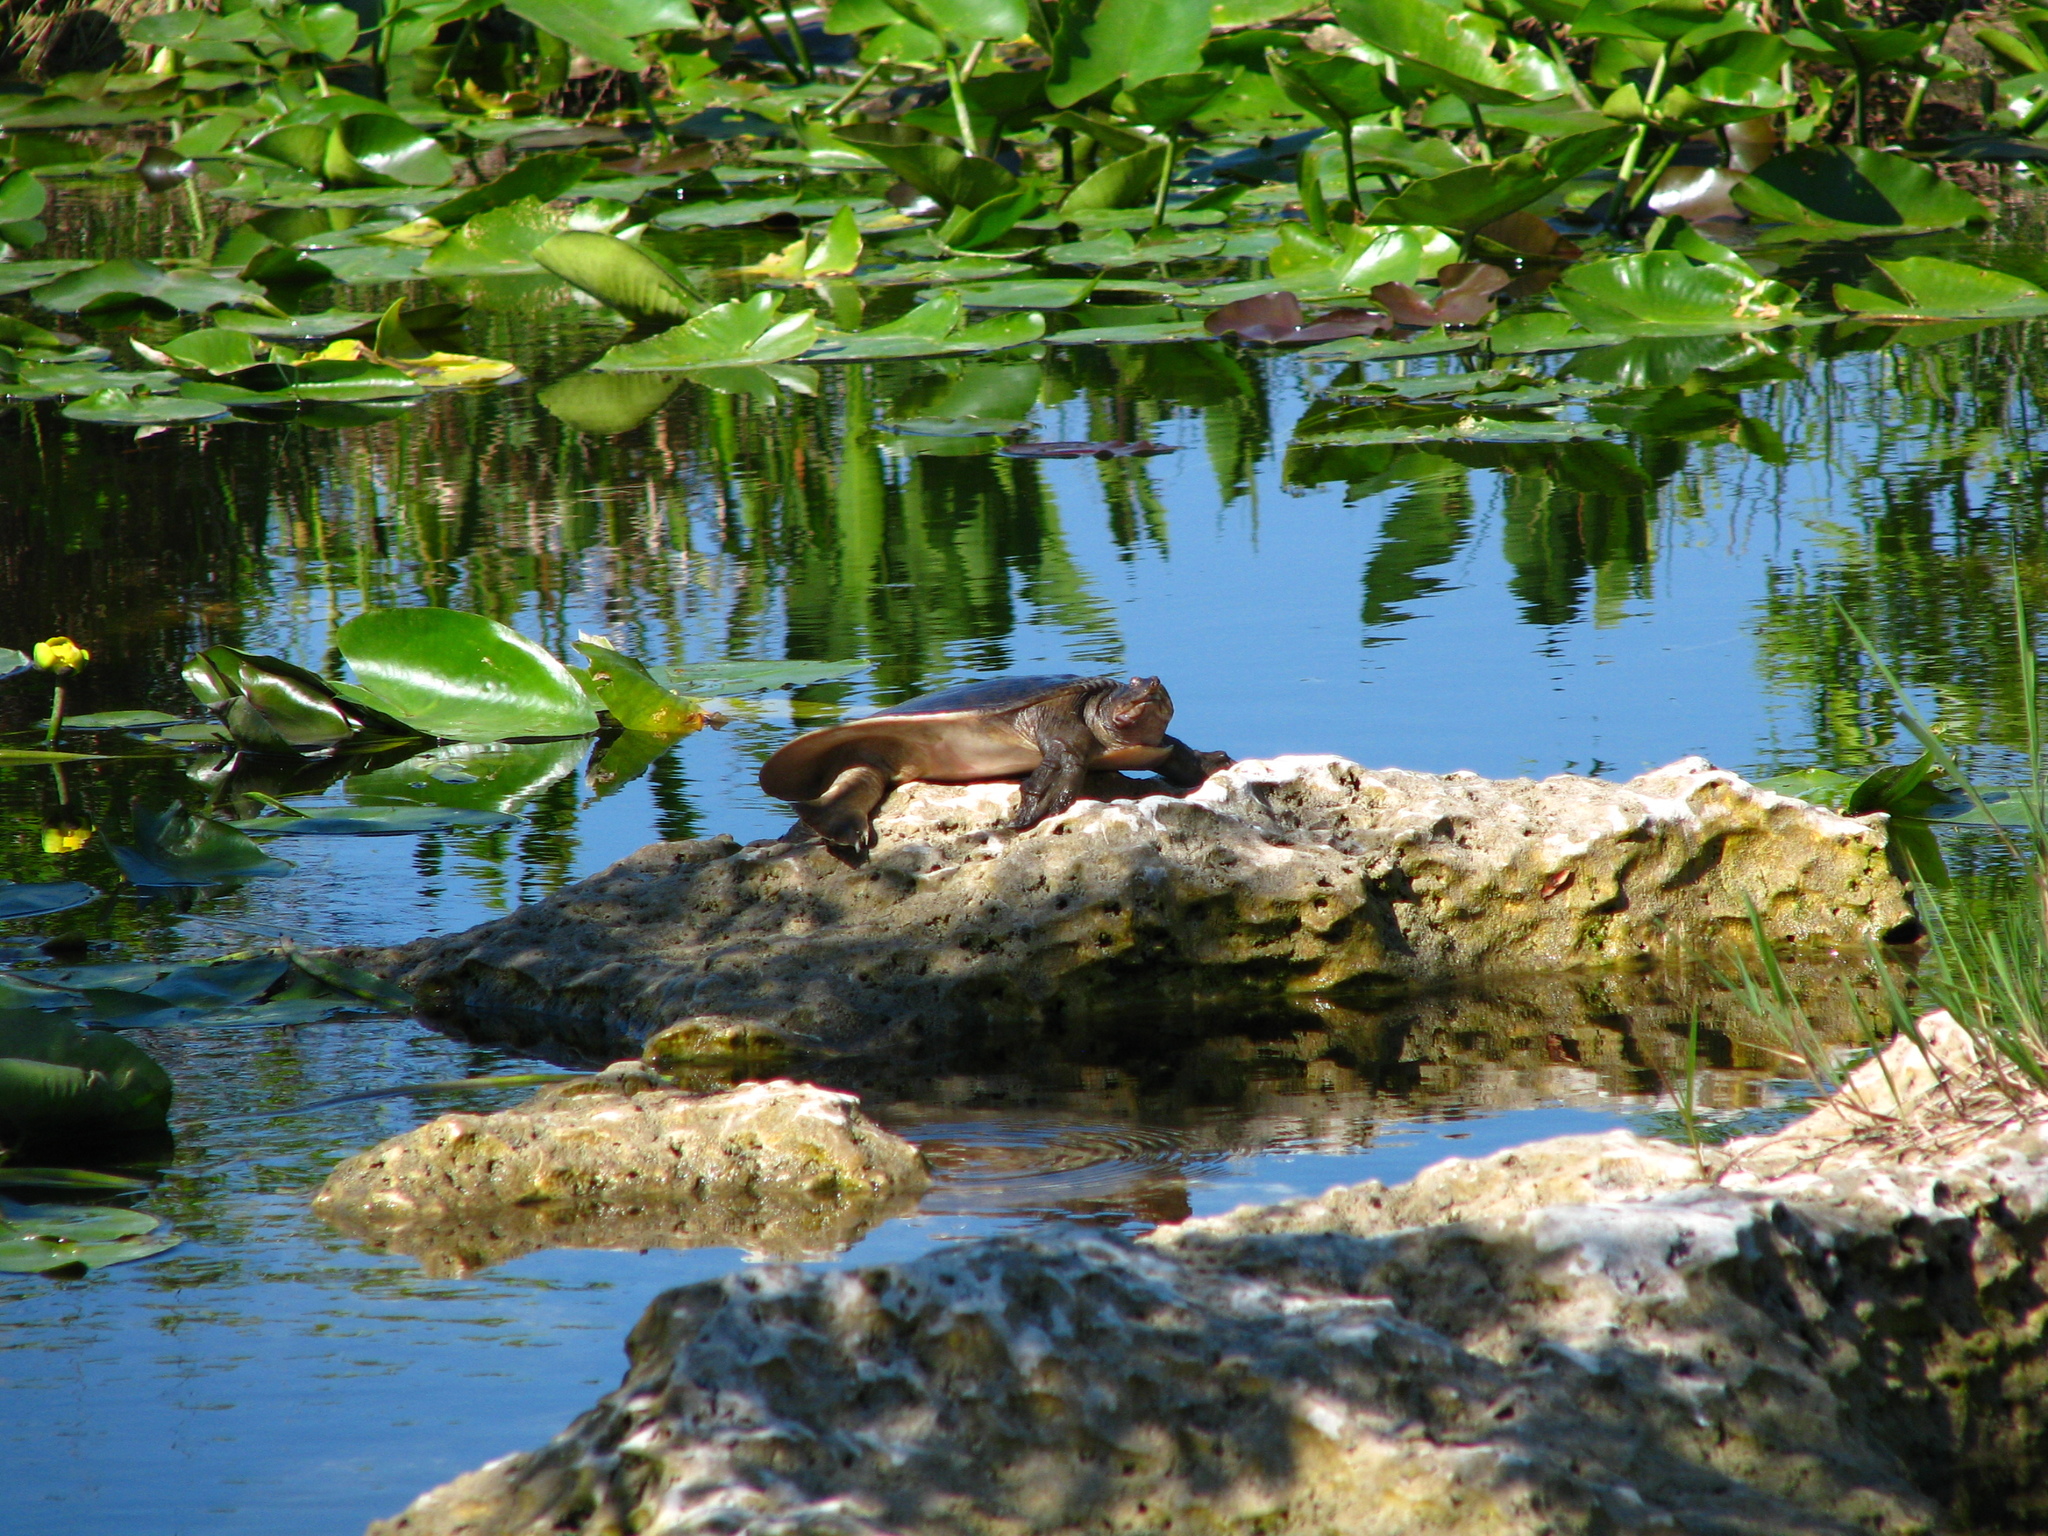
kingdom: Animalia
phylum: Chordata
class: Testudines
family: Trionychidae
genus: Apalone
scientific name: Apalone ferox
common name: Florida softshell turtle
